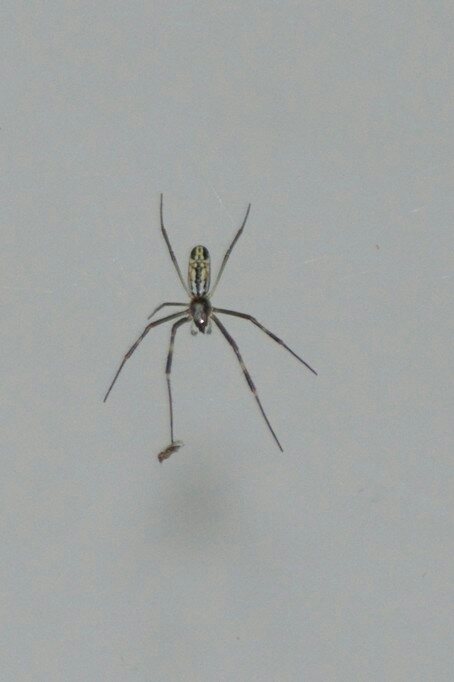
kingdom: Animalia
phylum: Arthropoda
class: Arachnida
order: Araneae
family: Araneidae
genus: Trichonephila
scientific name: Trichonephila clavipes
